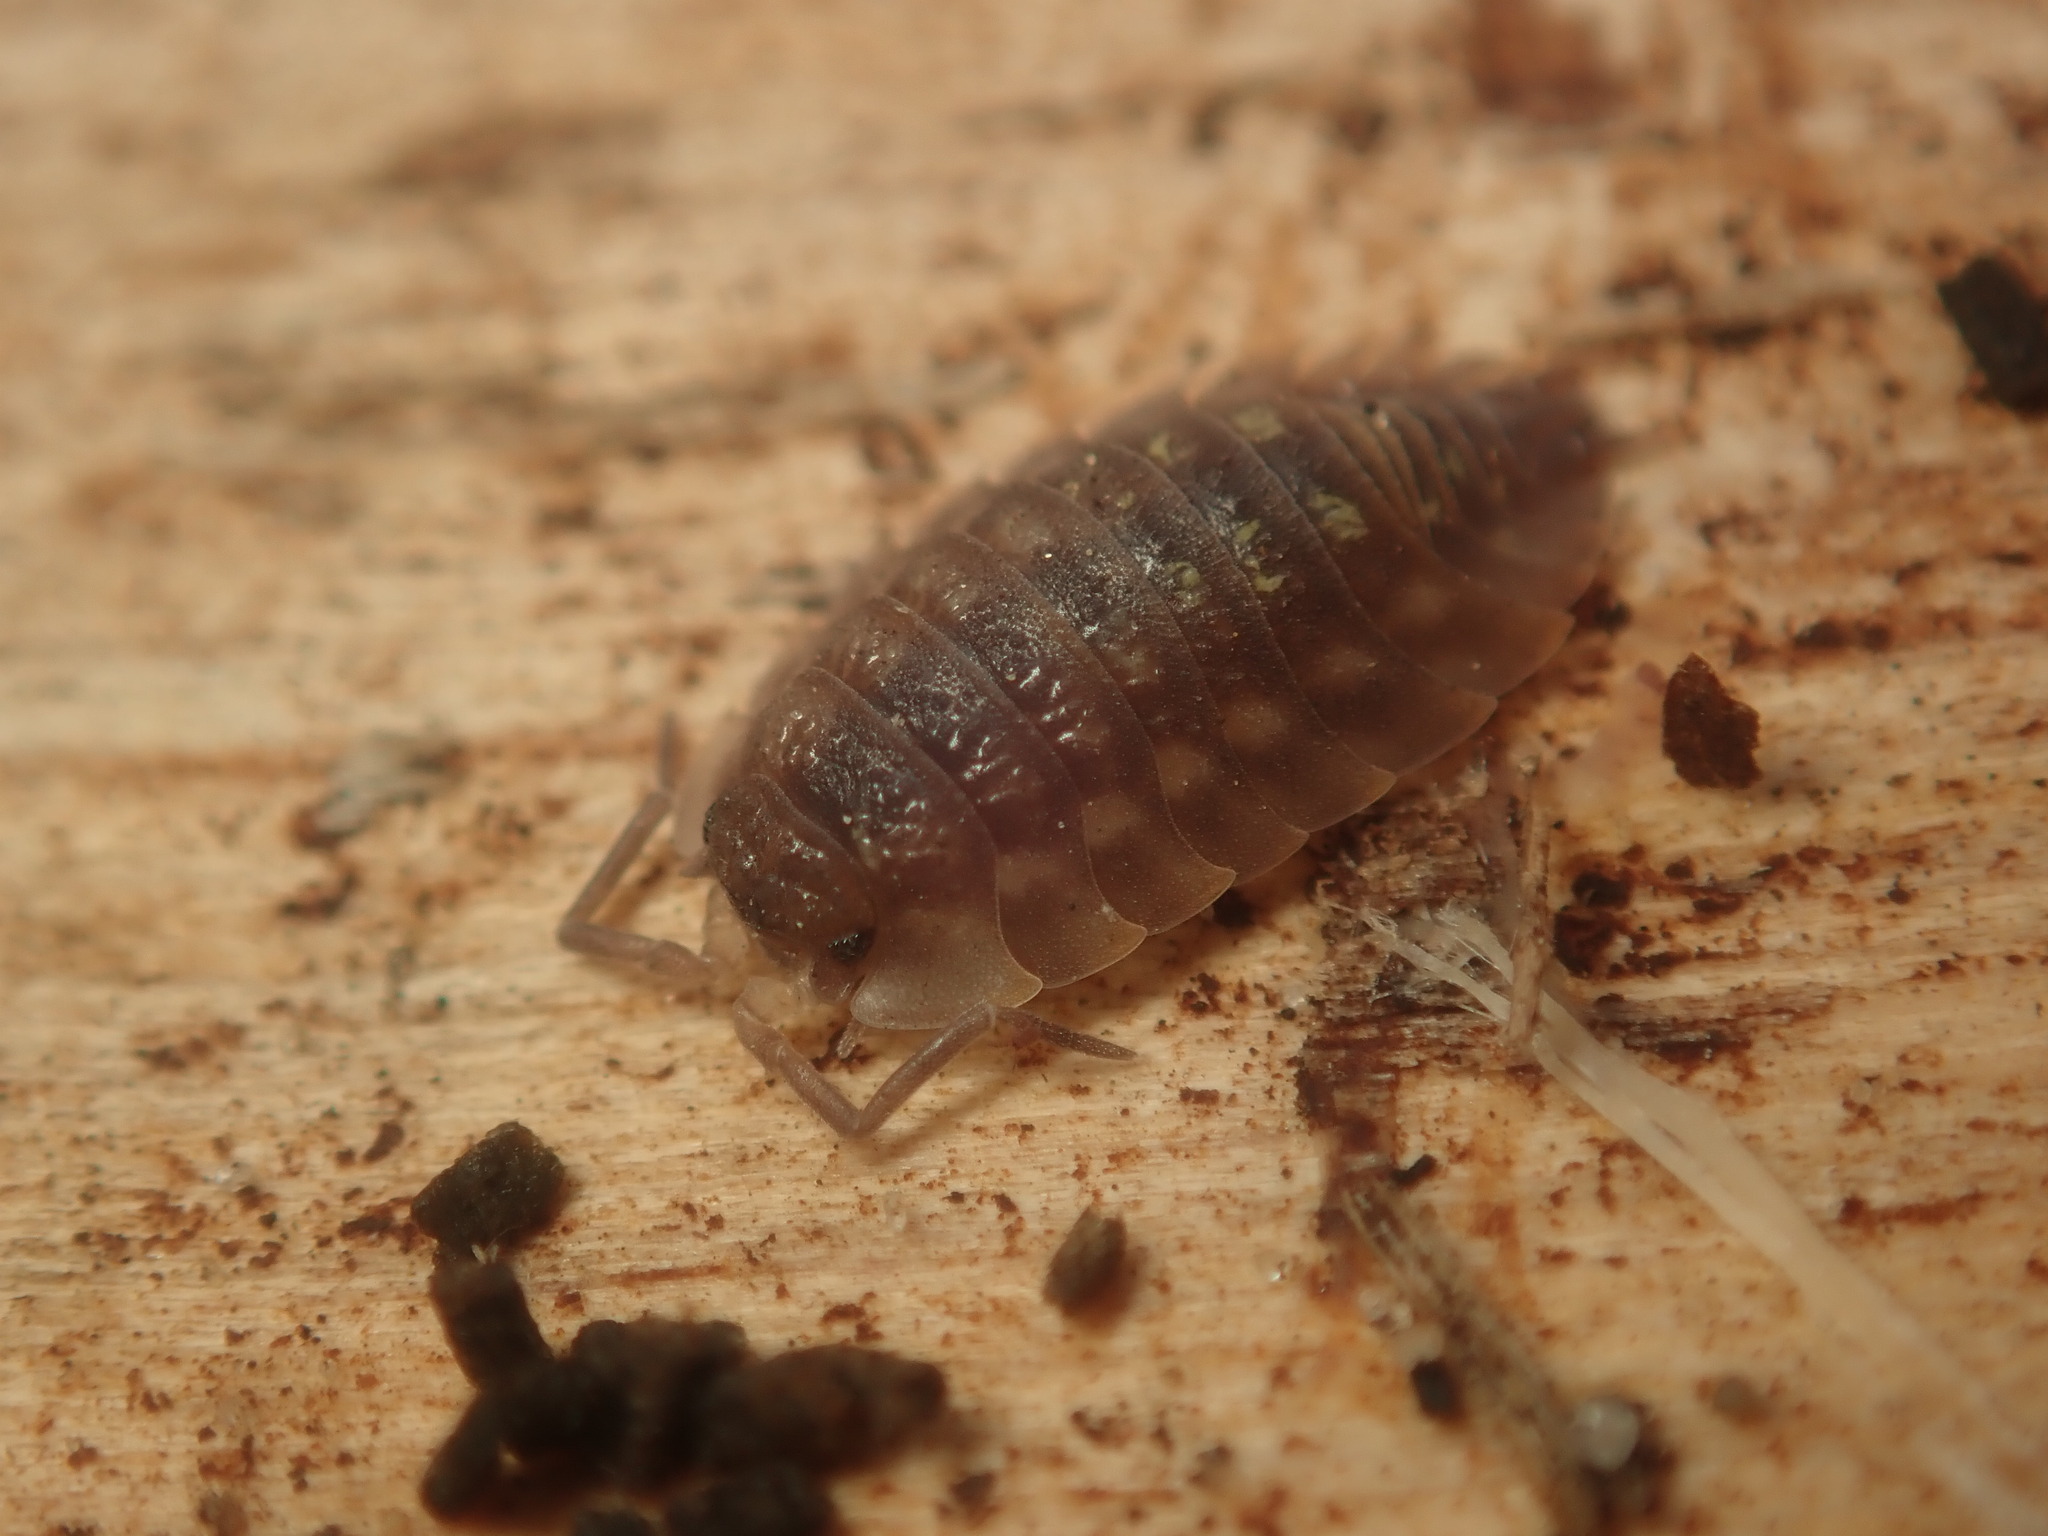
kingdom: Animalia
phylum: Arthropoda
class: Malacostraca
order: Isopoda
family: Oniscidae
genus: Oniscus
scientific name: Oniscus asellus
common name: Common shiny woodlouse
